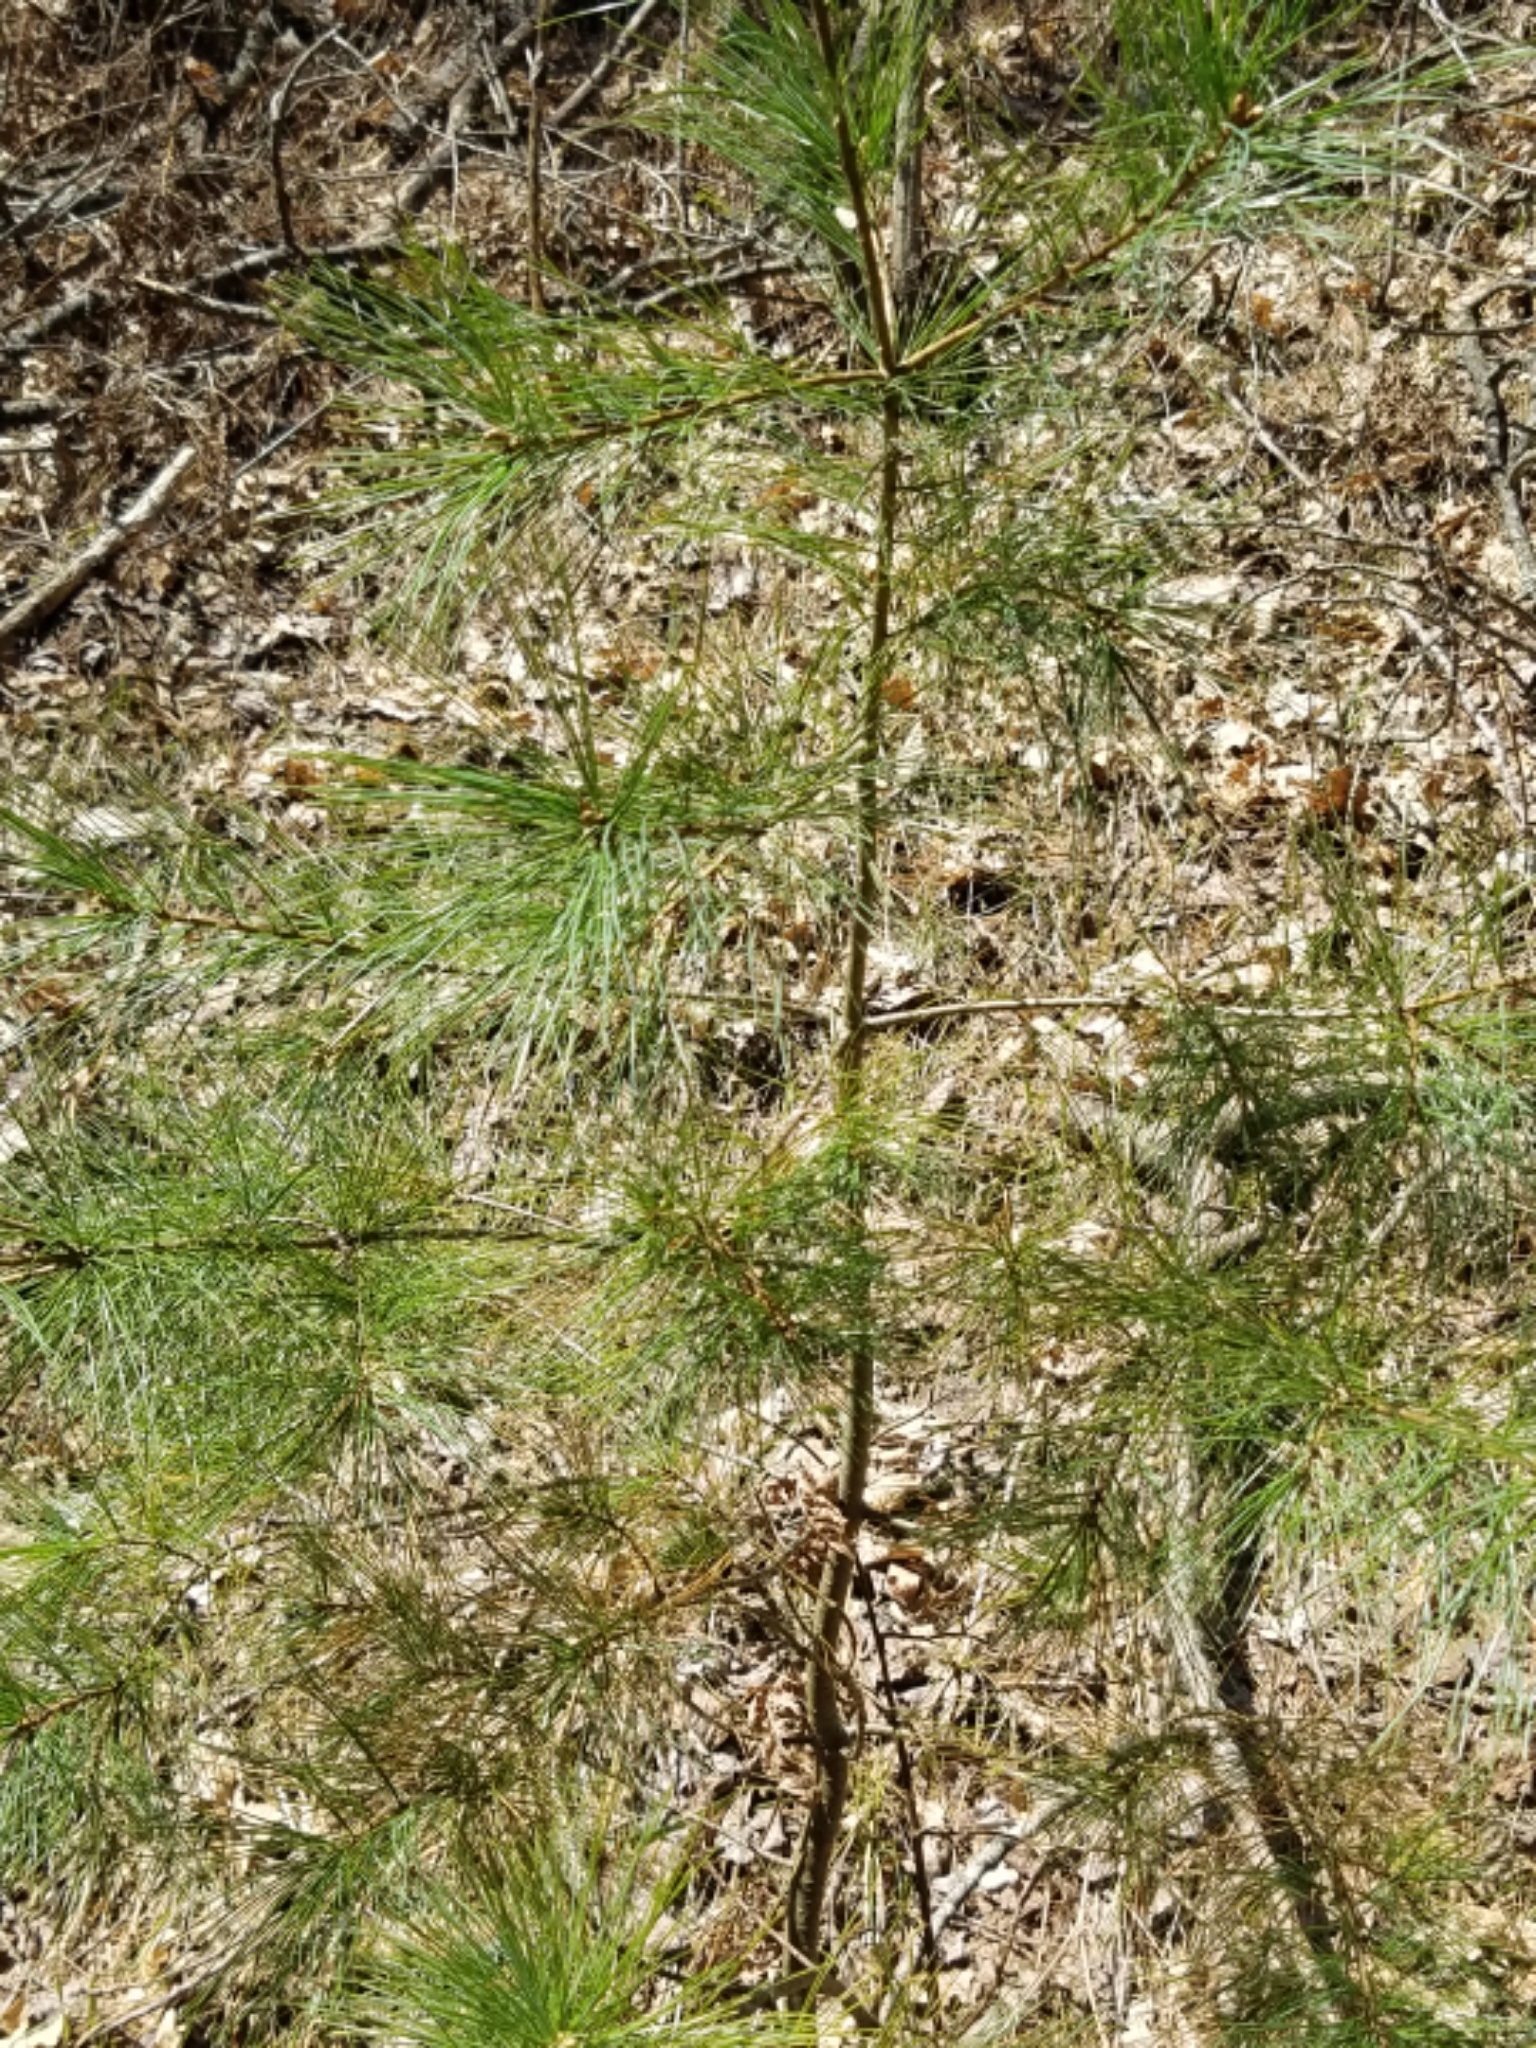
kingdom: Plantae
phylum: Tracheophyta
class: Pinopsida
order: Pinales
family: Pinaceae
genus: Pinus
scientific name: Pinus strobus
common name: Weymouth pine
